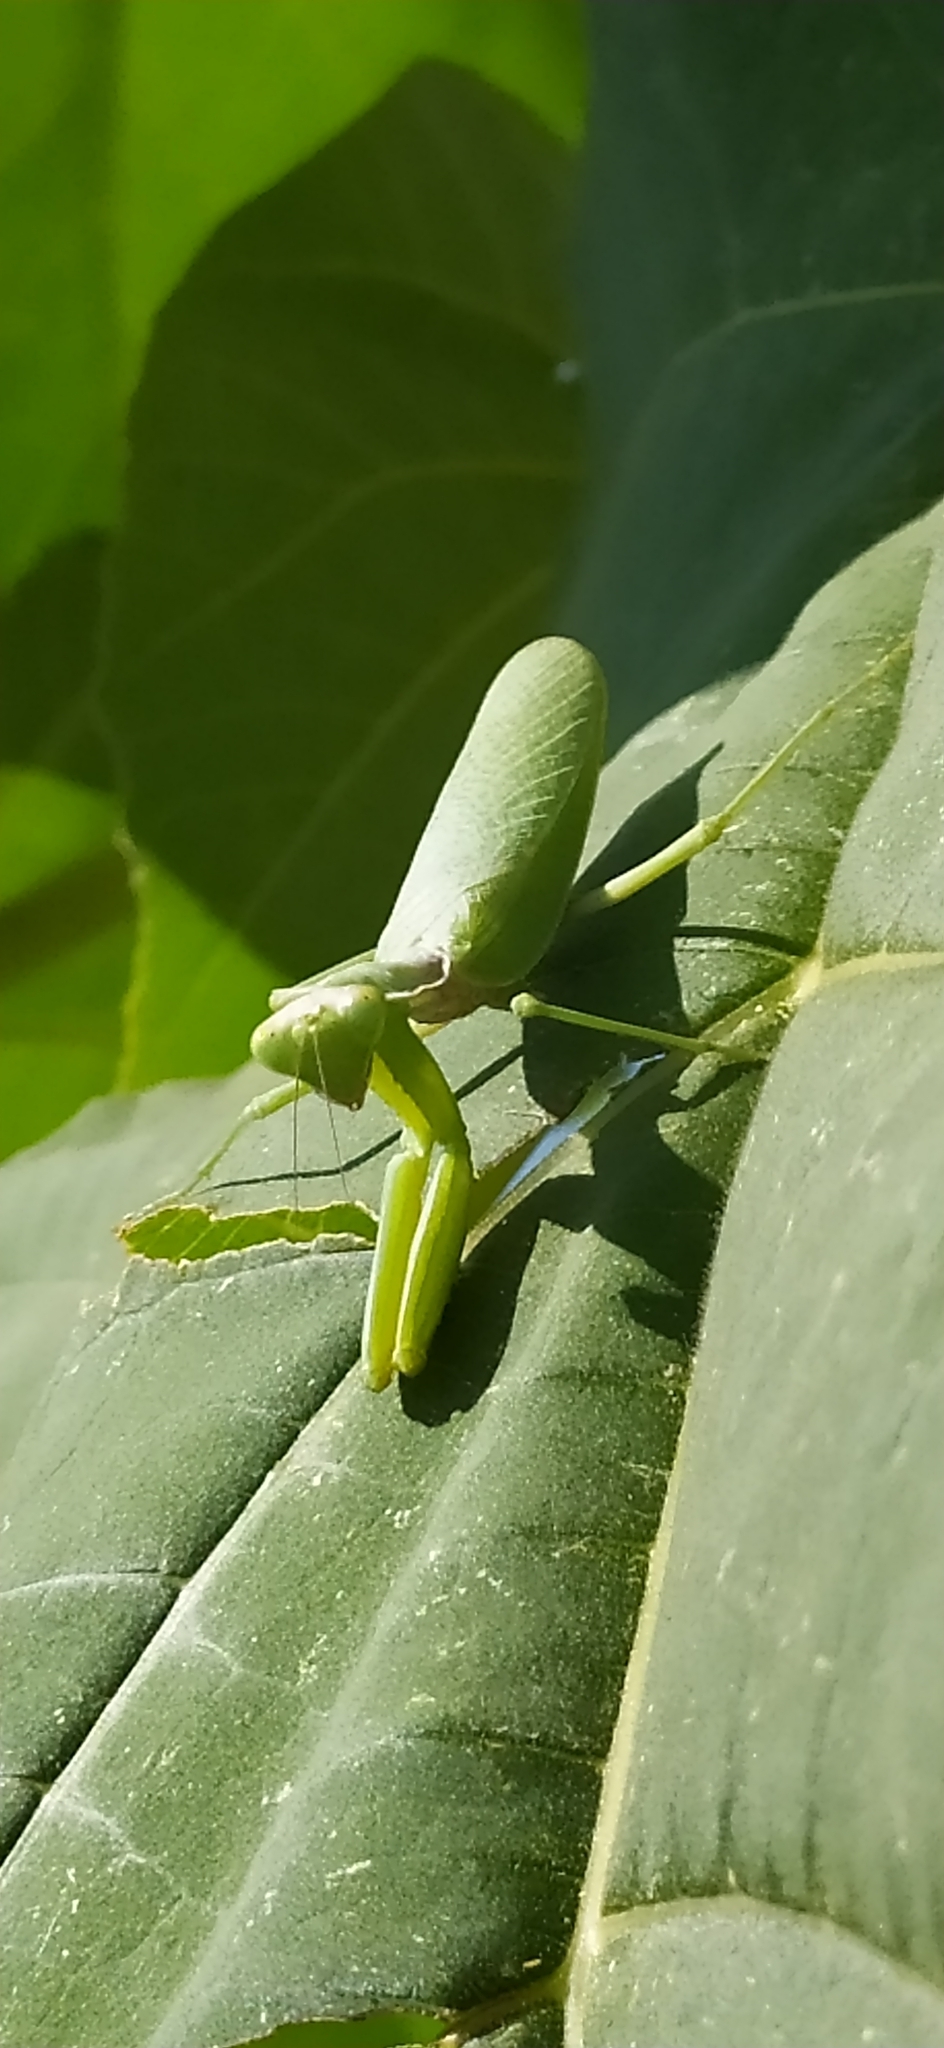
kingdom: Animalia
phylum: Arthropoda
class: Insecta
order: Mantodea
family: Mantidae
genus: Hierodula
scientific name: Hierodula tenuidentata
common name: Giant asian mantis
